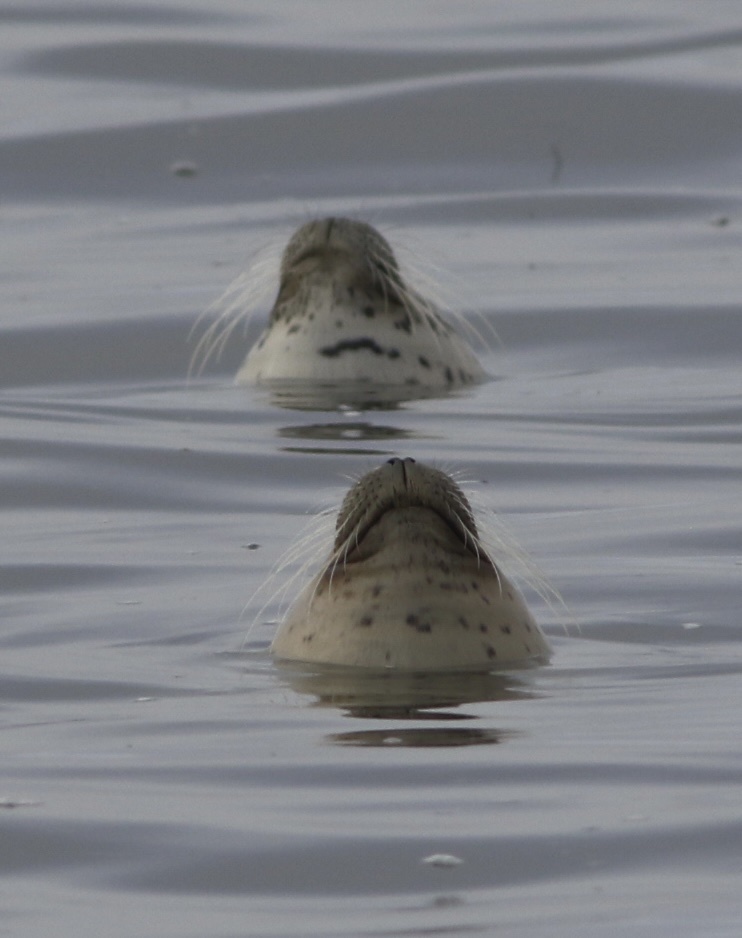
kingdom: Animalia
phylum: Chordata
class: Mammalia
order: Carnivora
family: Phocidae
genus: Phoca
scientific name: Phoca vitulina
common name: Harbor seal
